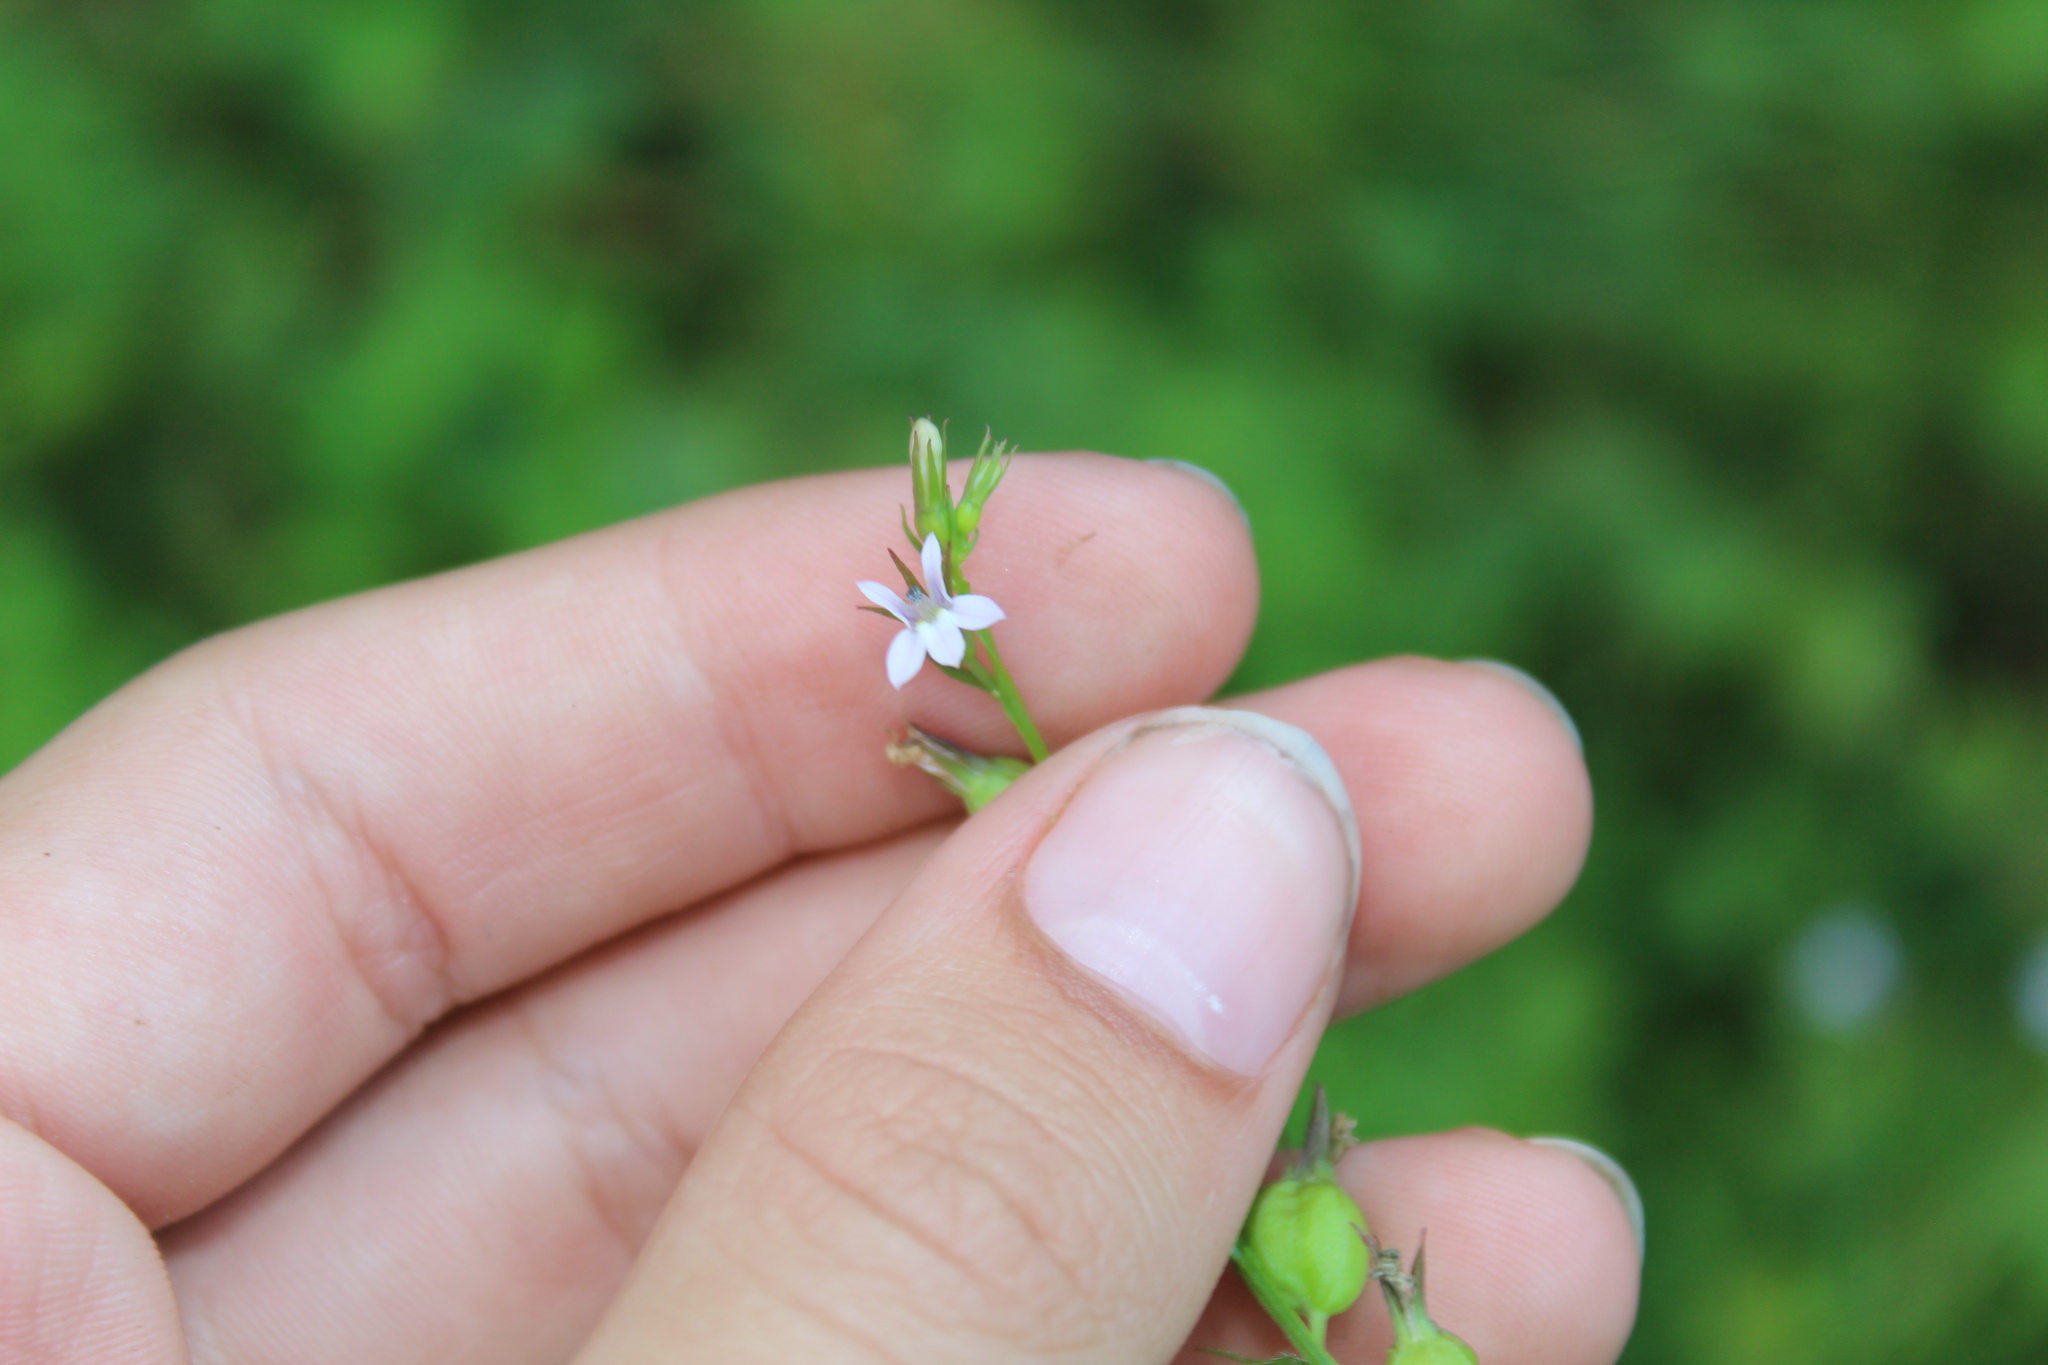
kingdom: Plantae
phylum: Tracheophyta
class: Magnoliopsida
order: Asterales
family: Campanulaceae
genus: Lobelia
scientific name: Lobelia inflata
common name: Indian tobacco
